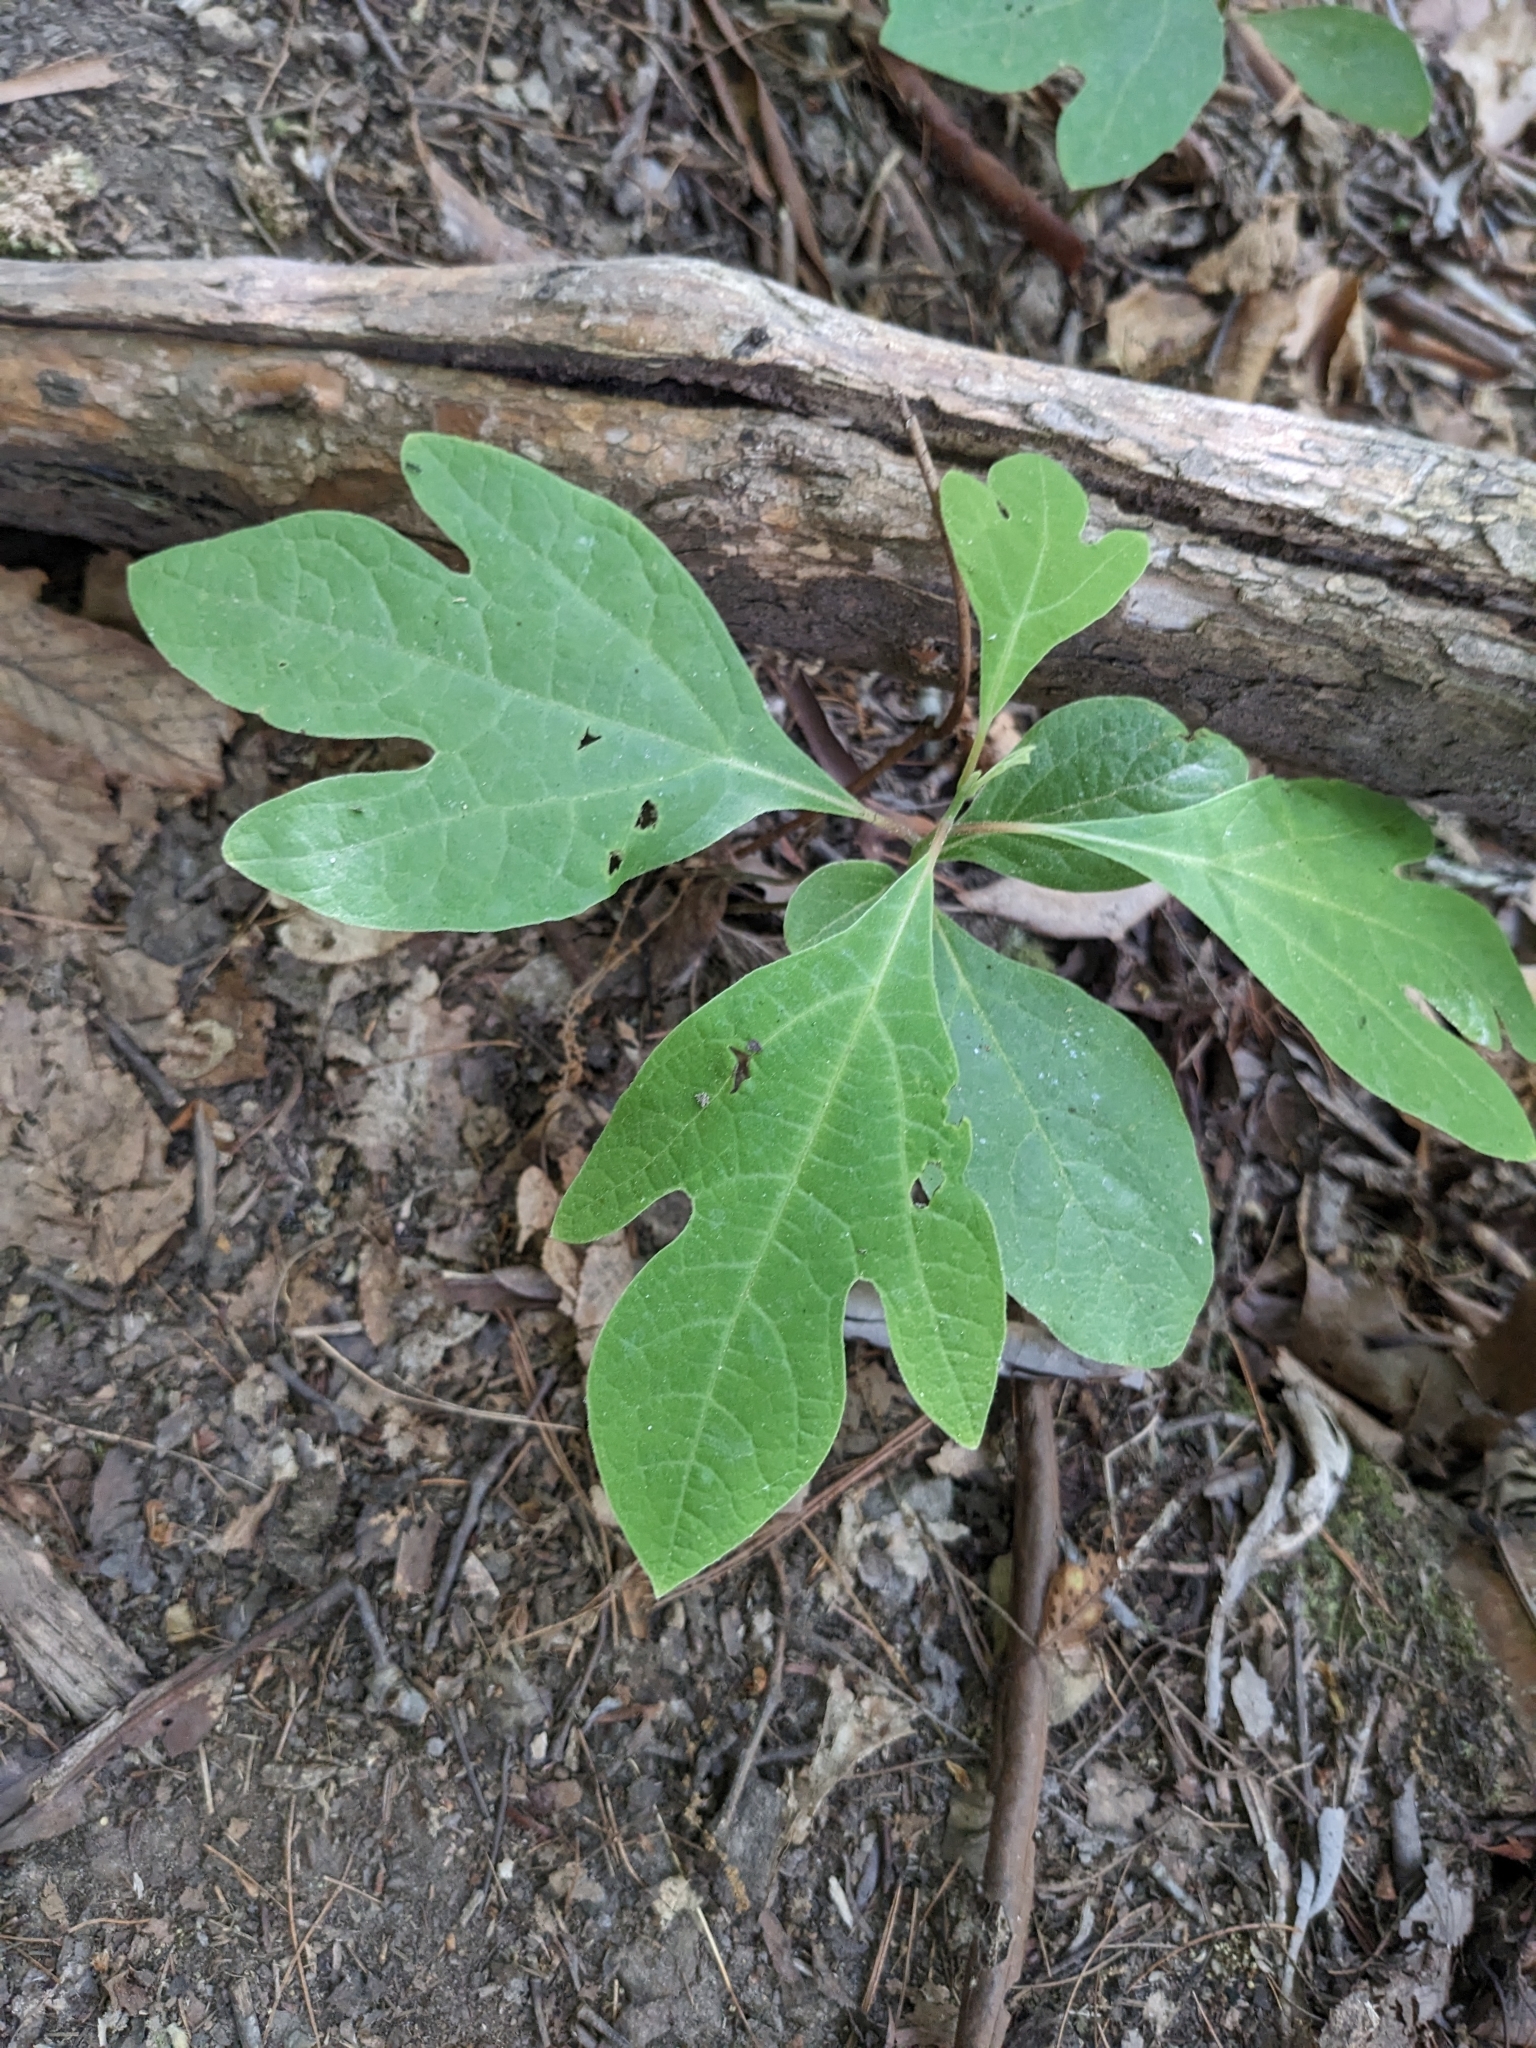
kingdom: Plantae
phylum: Tracheophyta
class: Magnoliopsida
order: Laurales
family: Lauraceae
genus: Sassafras
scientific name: Sassafras albidum
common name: Sassafras
